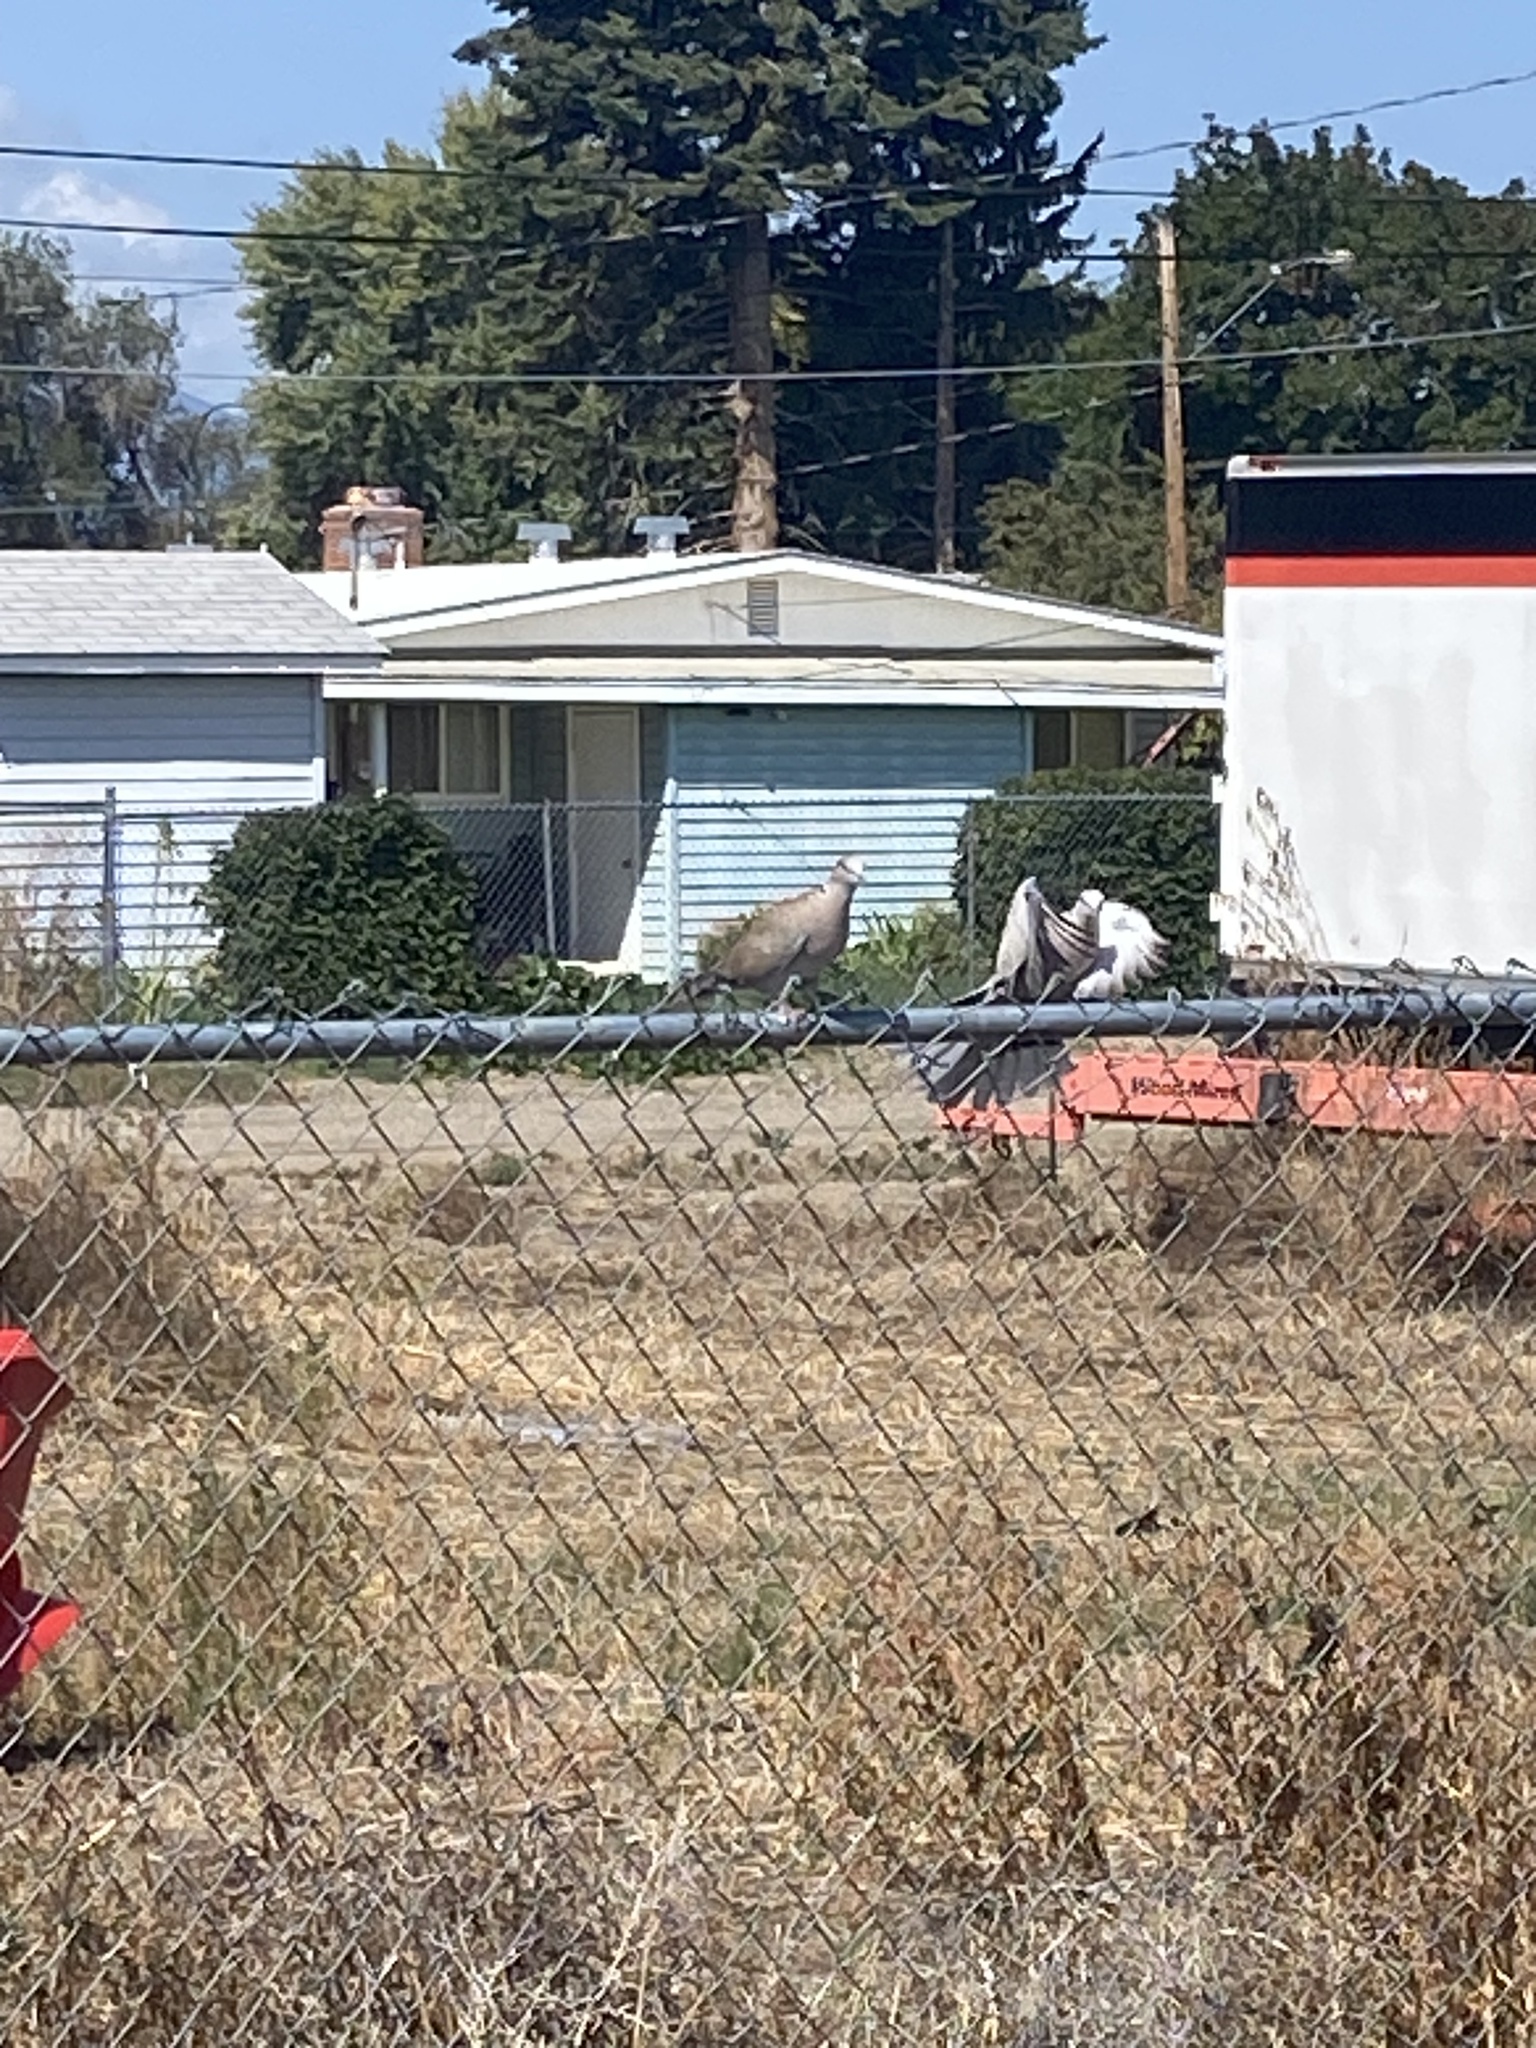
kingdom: Animalia
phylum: Chordata
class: Aves
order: Columbiformes
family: Columbidae
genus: Streptopelia
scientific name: Streptopelia decaocto
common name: Eurasian collared dove
